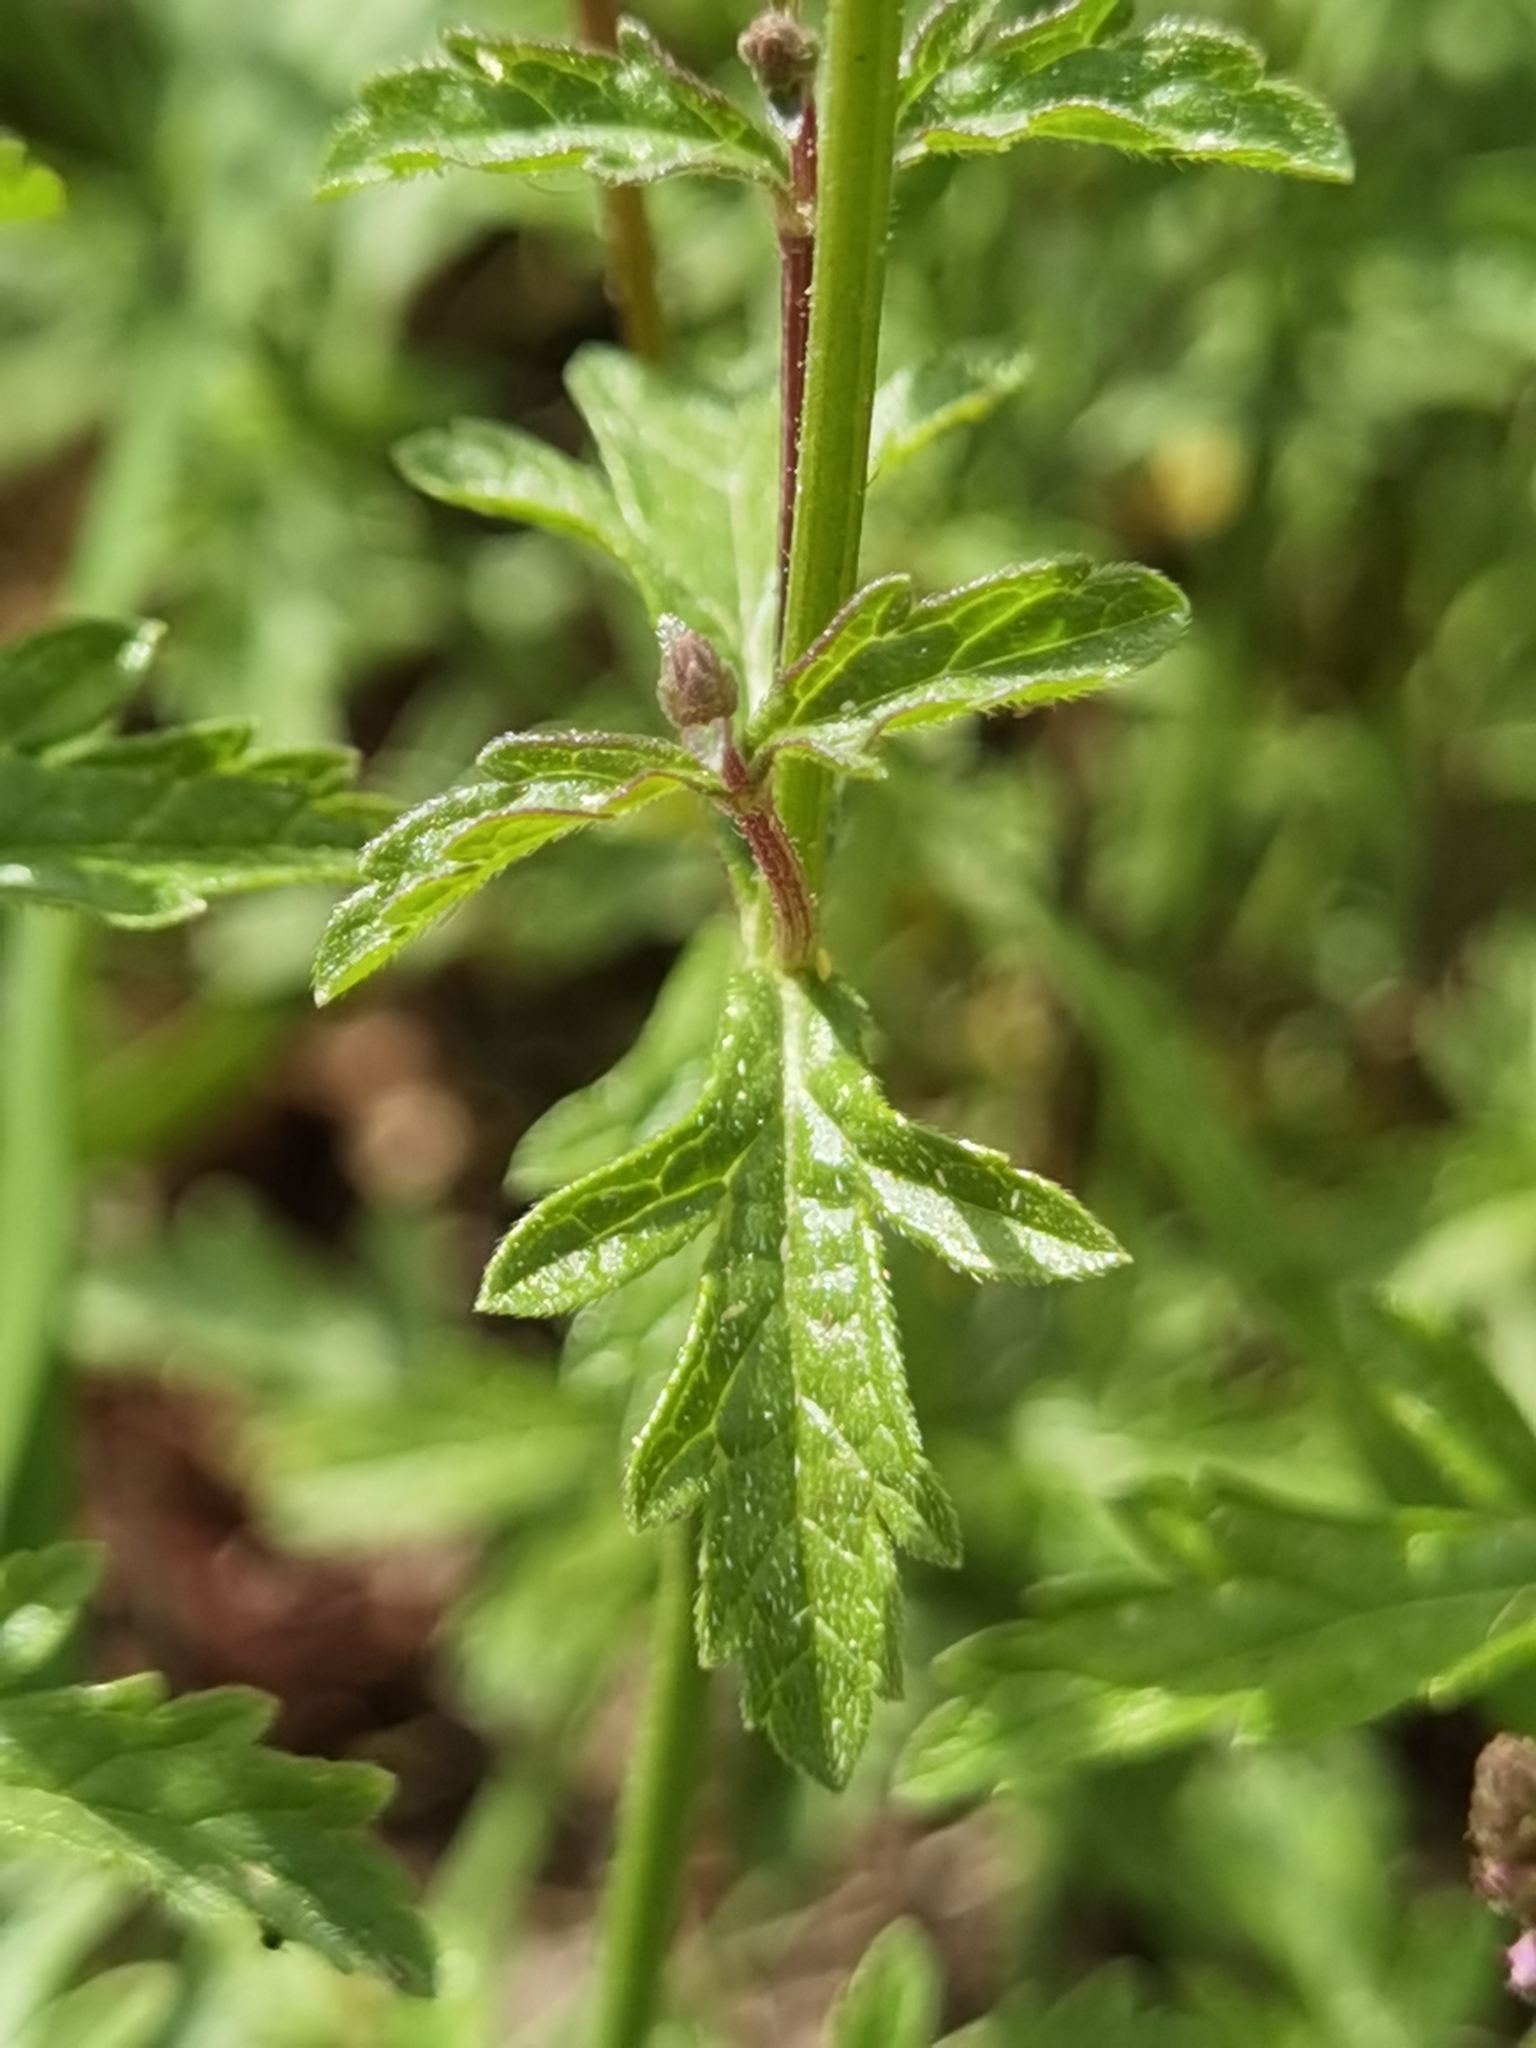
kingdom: Plantae
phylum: Tracheophyta
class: Magnoliopsida
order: Lamiales
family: Verbenaceae
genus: Verbena
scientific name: Verbena officinalis
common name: Vervain
